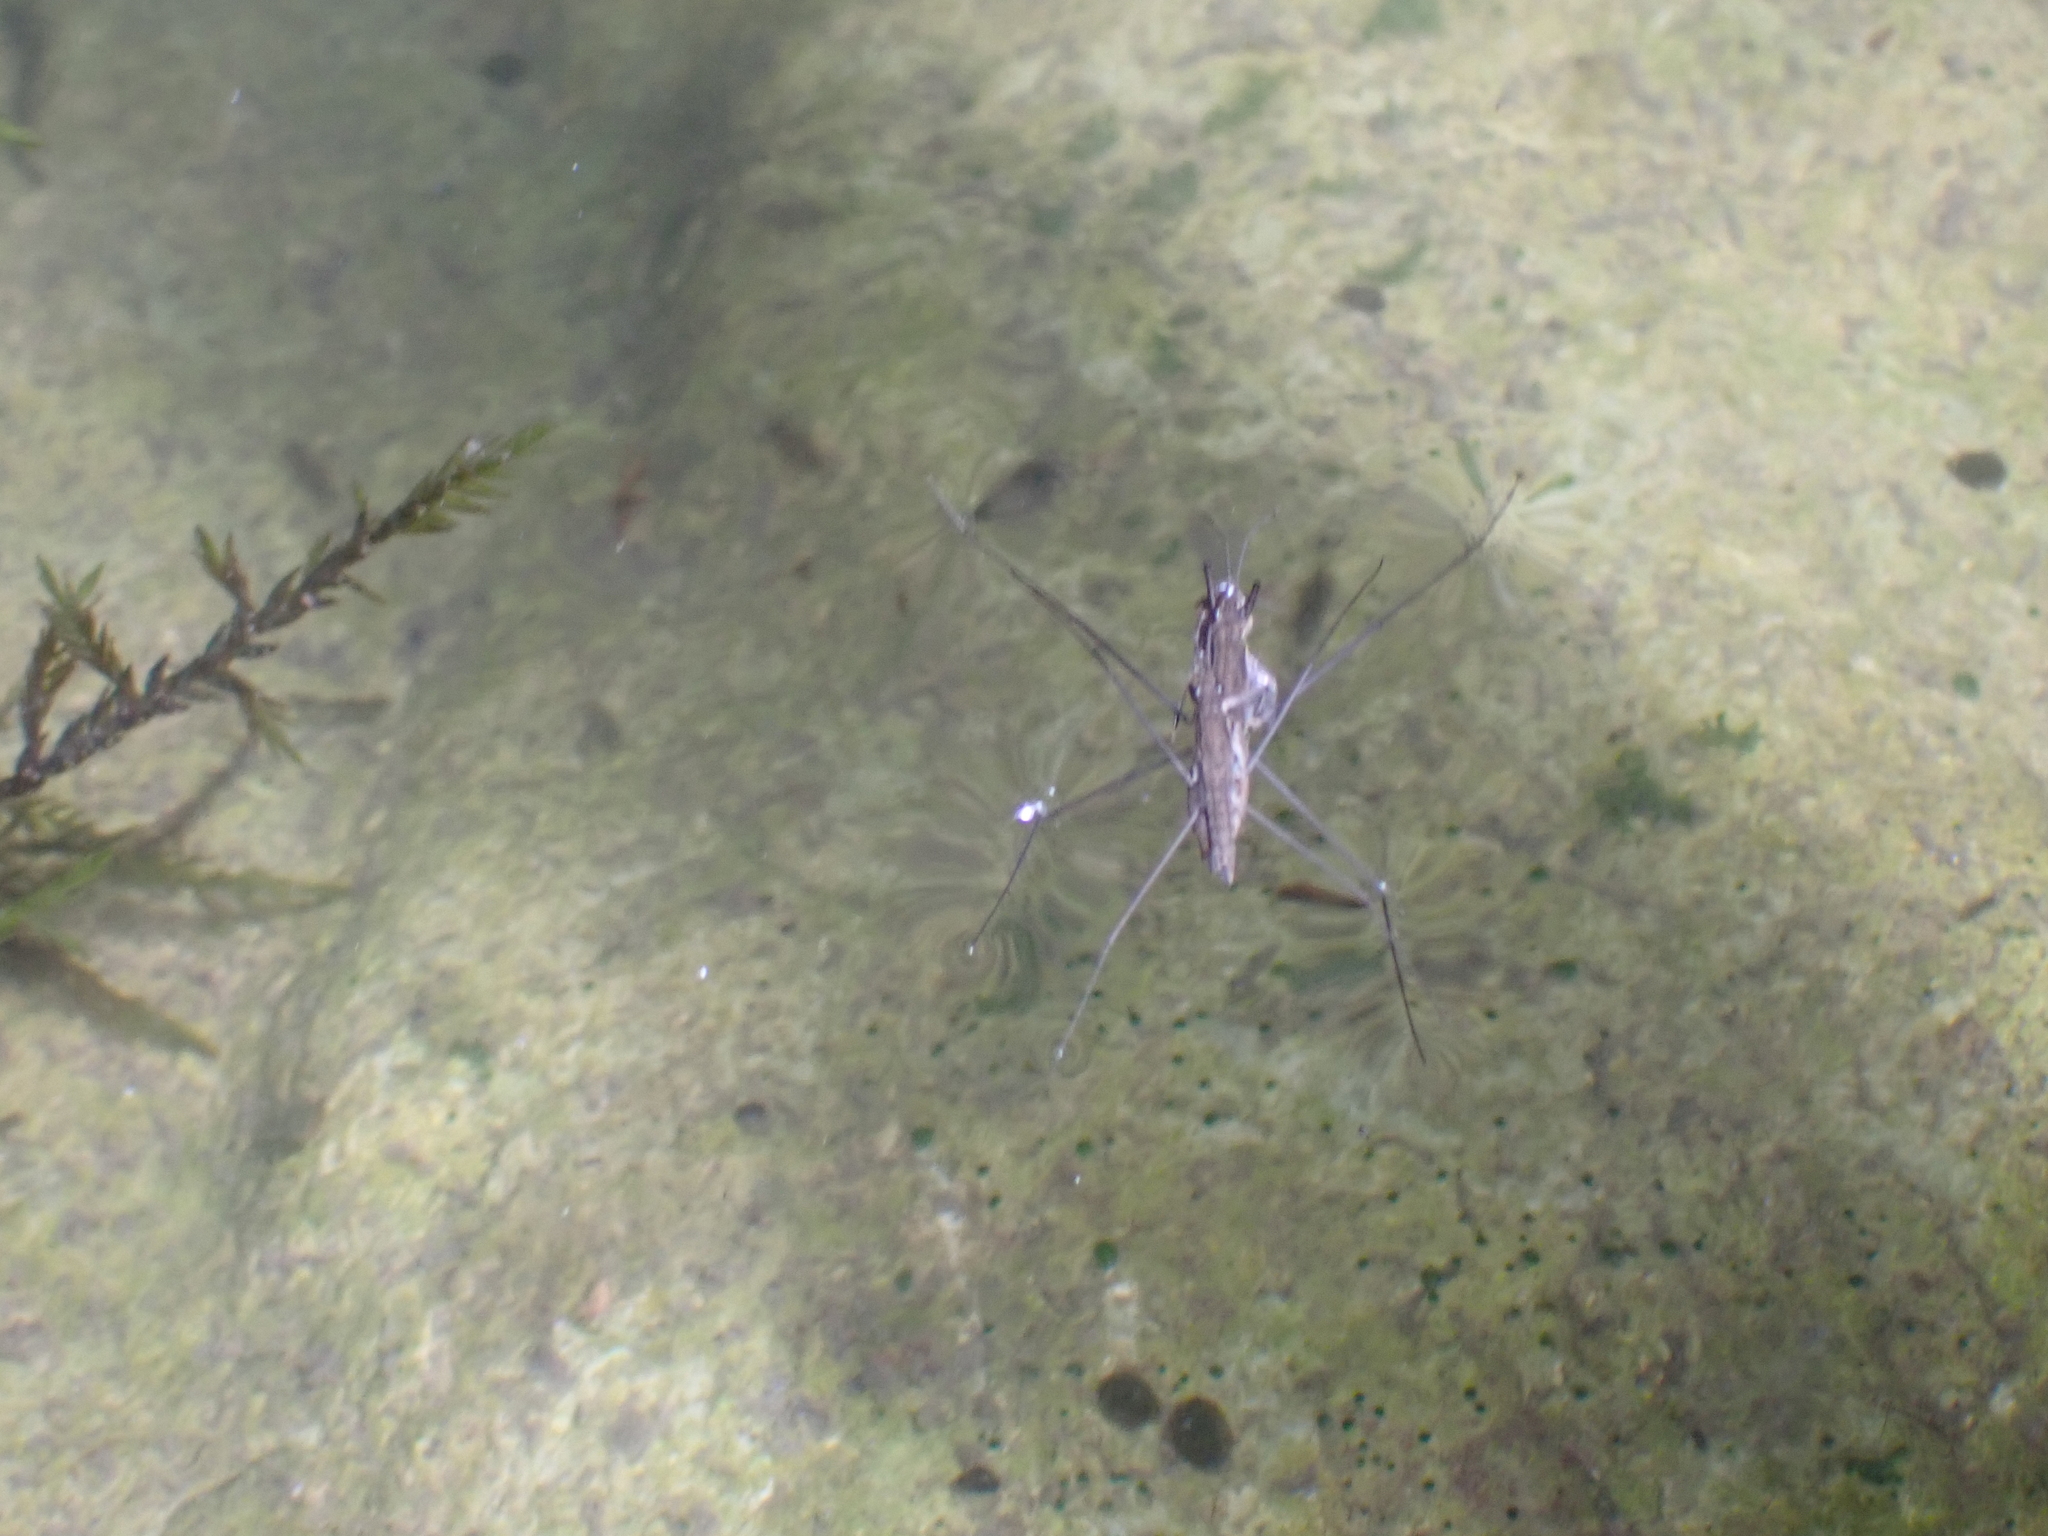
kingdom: Animalia
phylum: Arthropoda
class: Insecta
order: Hemiptera
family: Gerridae
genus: Aquarius
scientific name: Aquarius najas
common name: River skater
